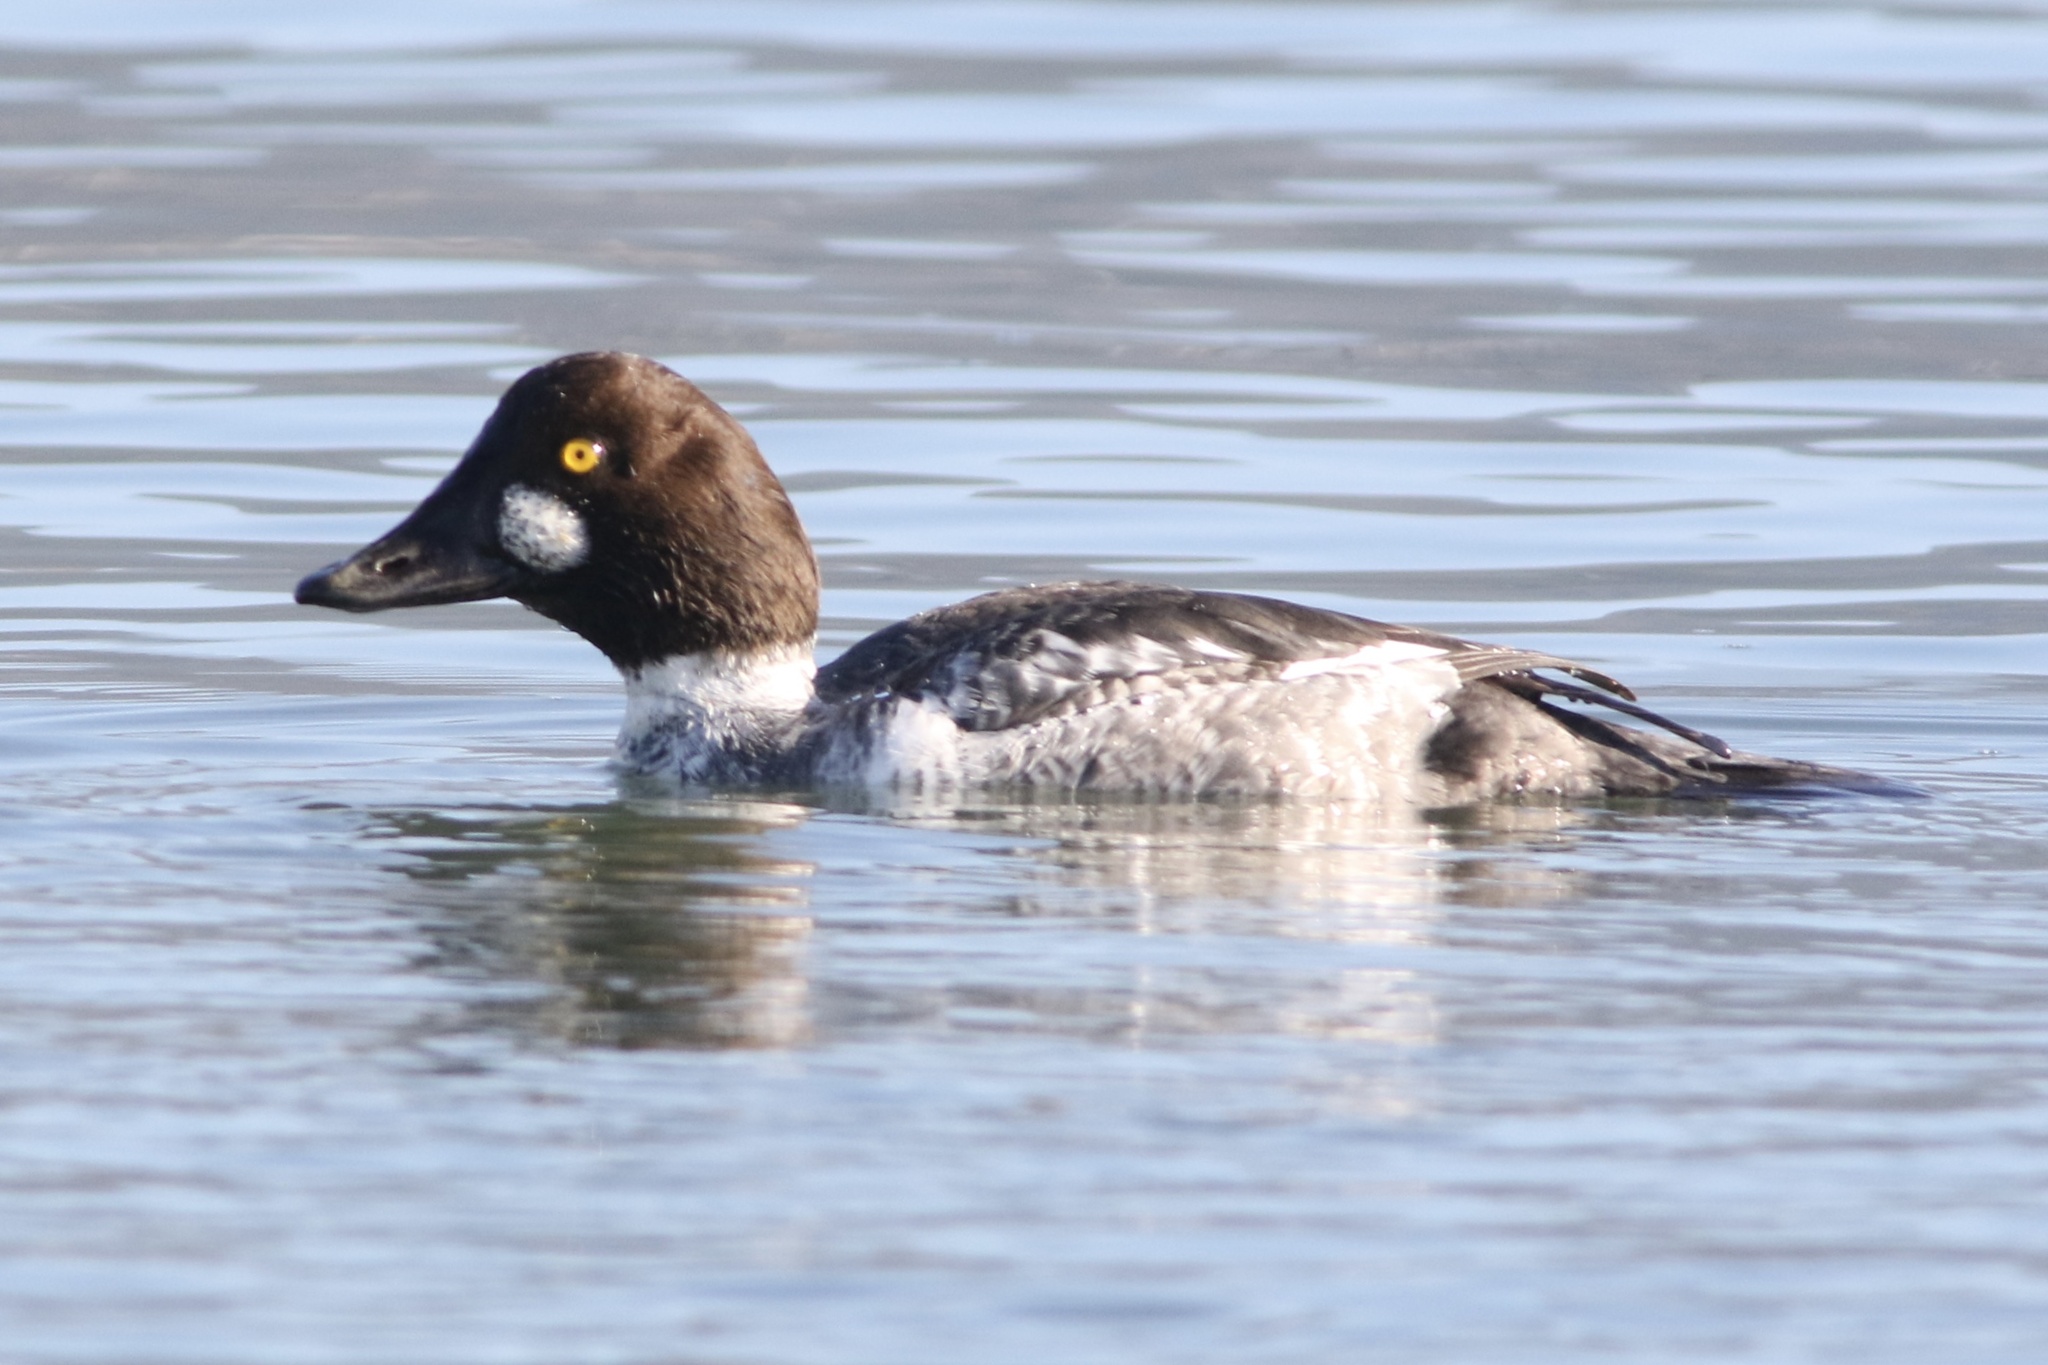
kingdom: Animalia
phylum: Chordata
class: Aves
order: Anseriformes
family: Anatidae
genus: Bucephala
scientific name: Bucephala clangula
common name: Common goldeneye
